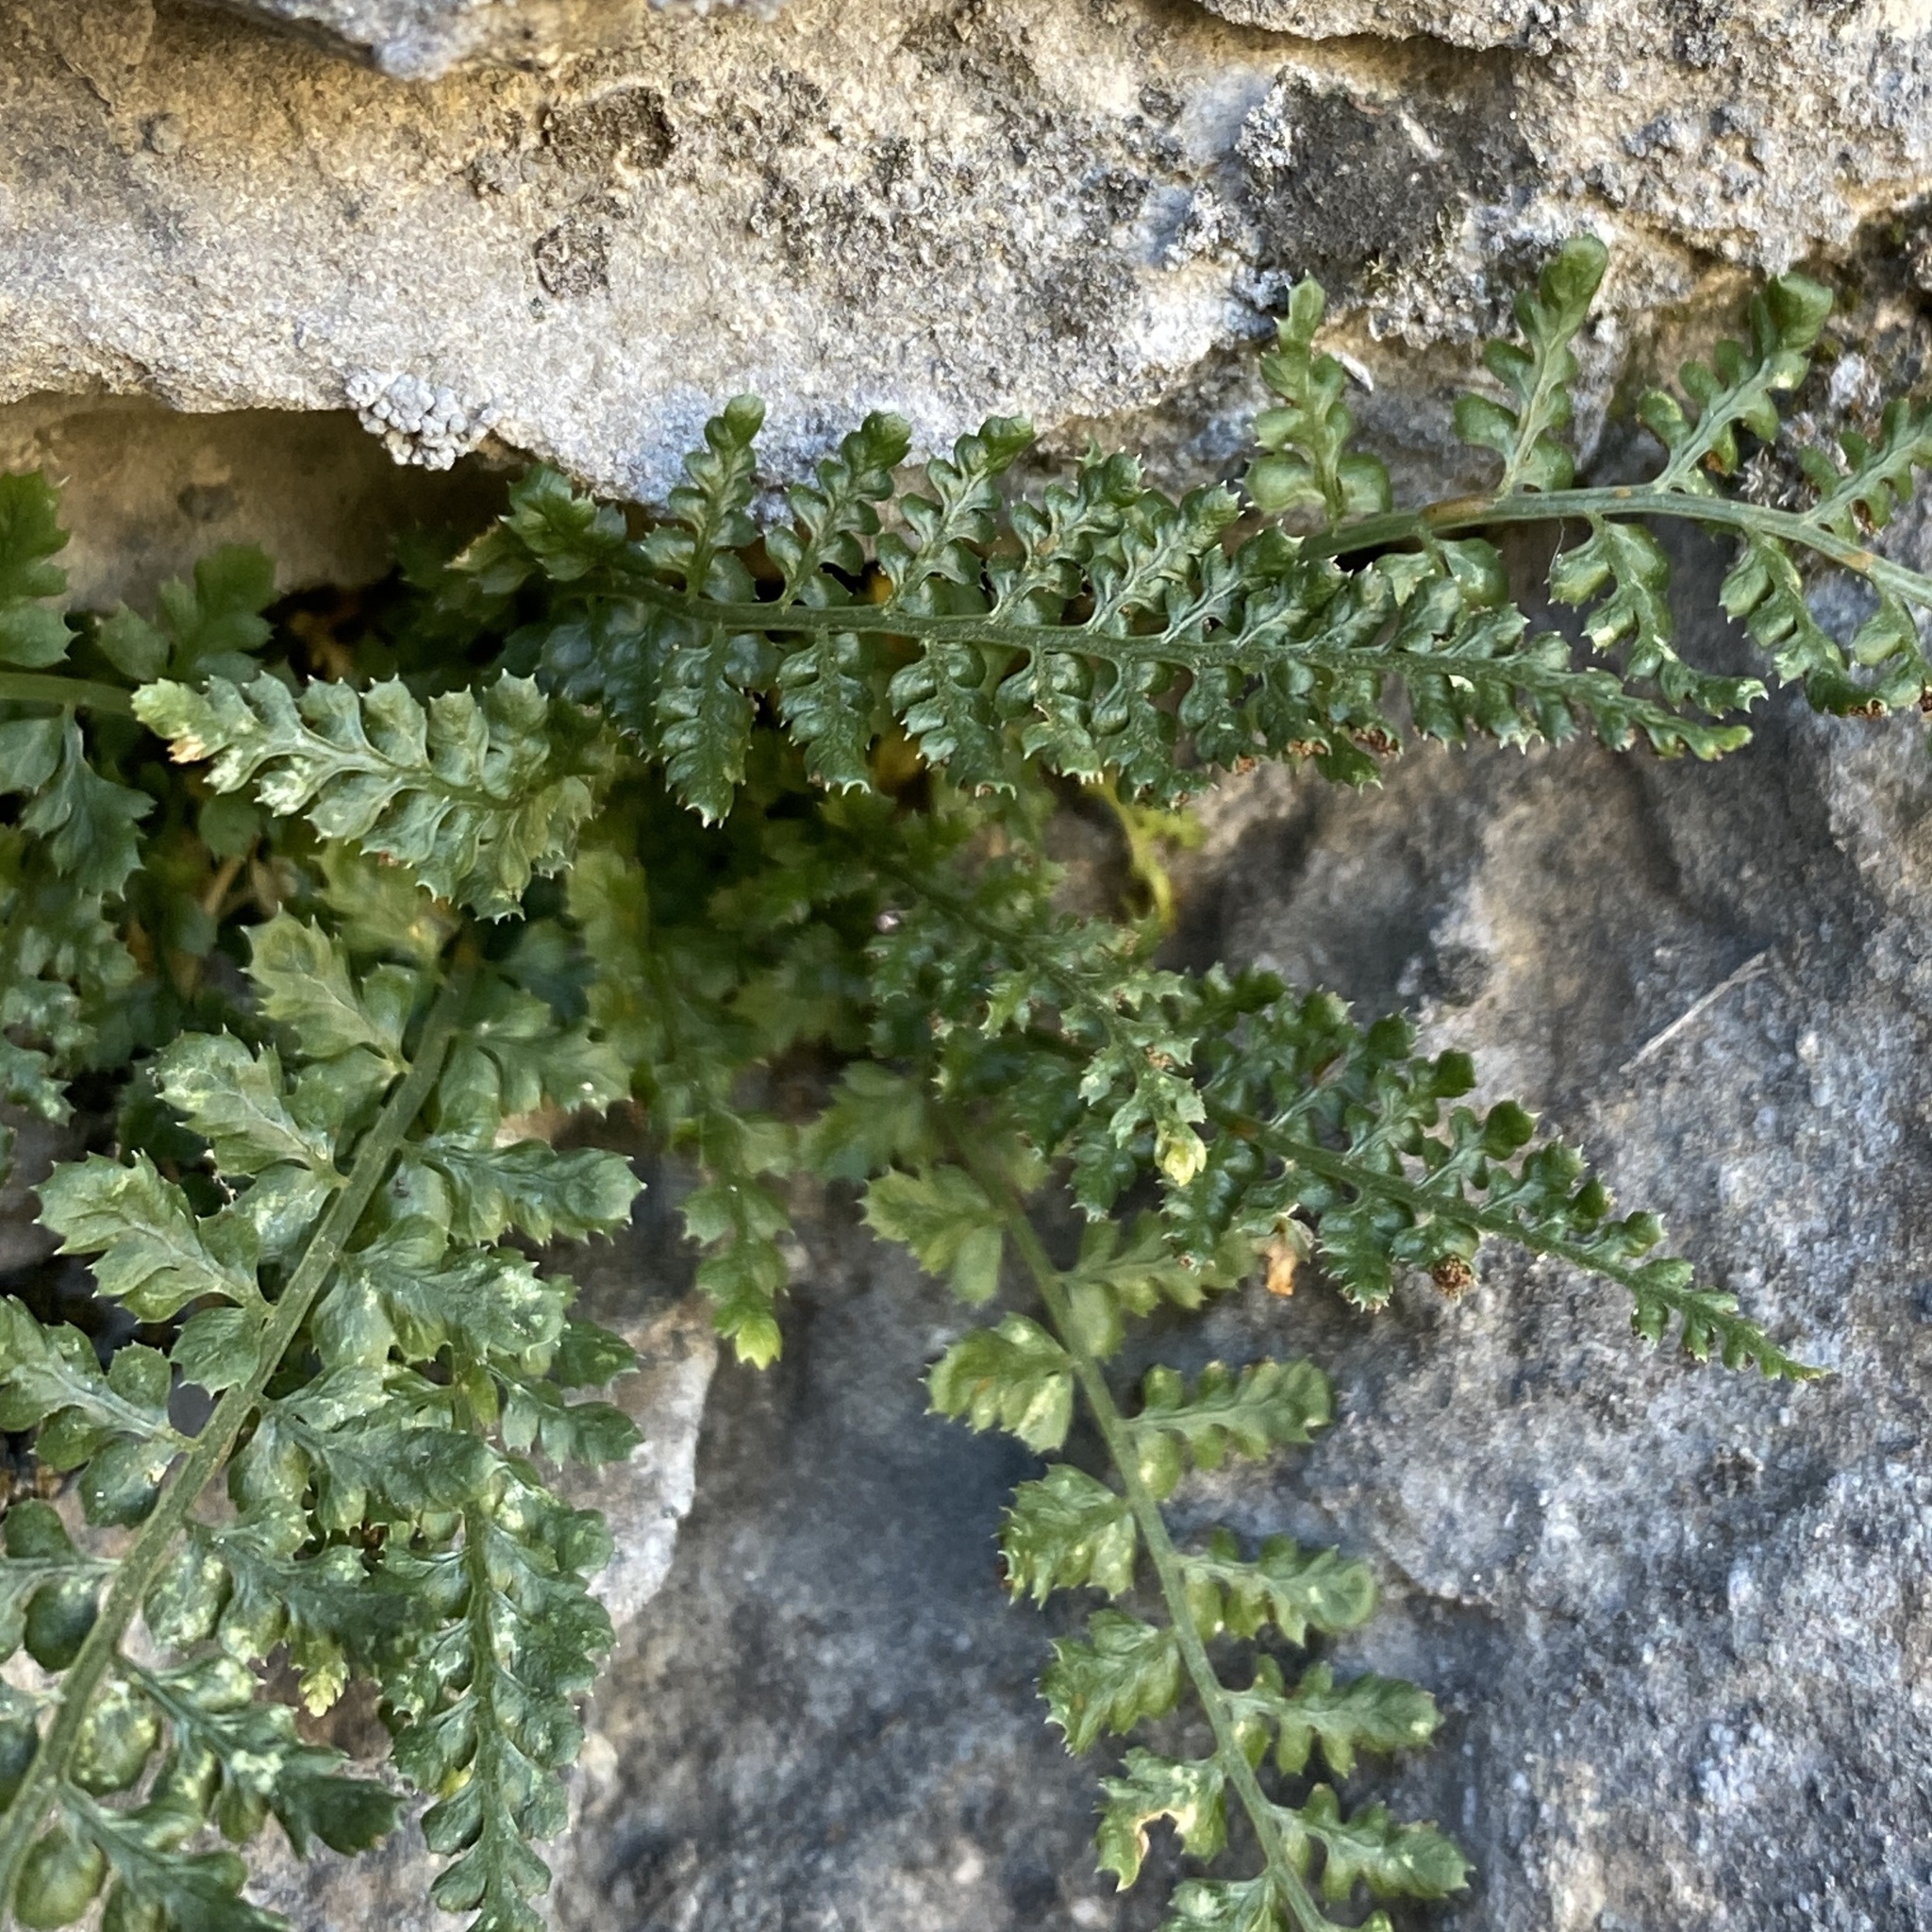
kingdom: Plantae
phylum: Tracheophyta
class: Polypodiopsida
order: Polypodiales
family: Aspleniaceae
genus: Asplenium
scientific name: Asplenium fontanum
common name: Fountain spleenwort
